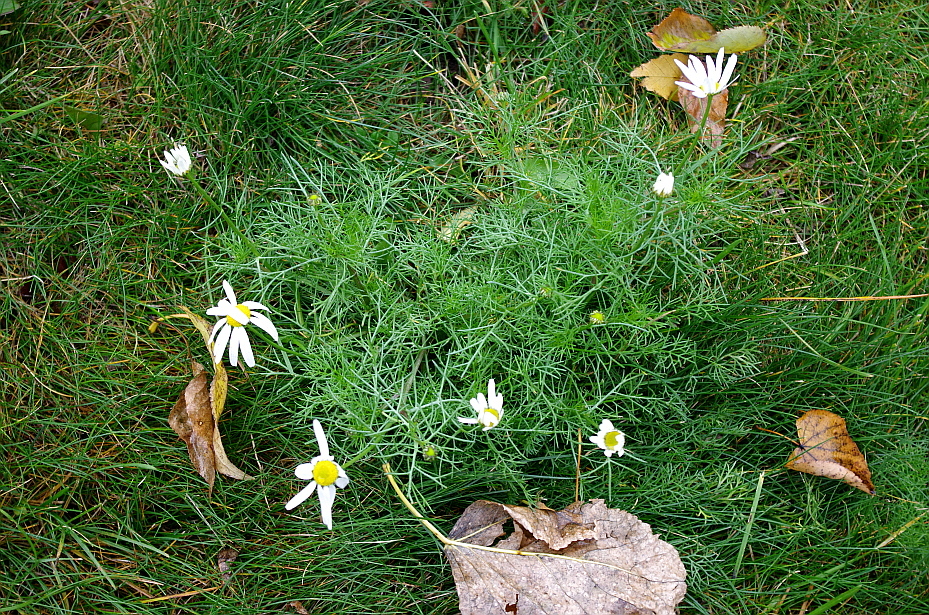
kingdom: Plantae
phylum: Tracheophyta
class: Magnoliopsida
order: Asterales
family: Asteraceae
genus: Tripleurospermum
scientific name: Tripleurospermum inodorum
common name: Scentless mayweed
